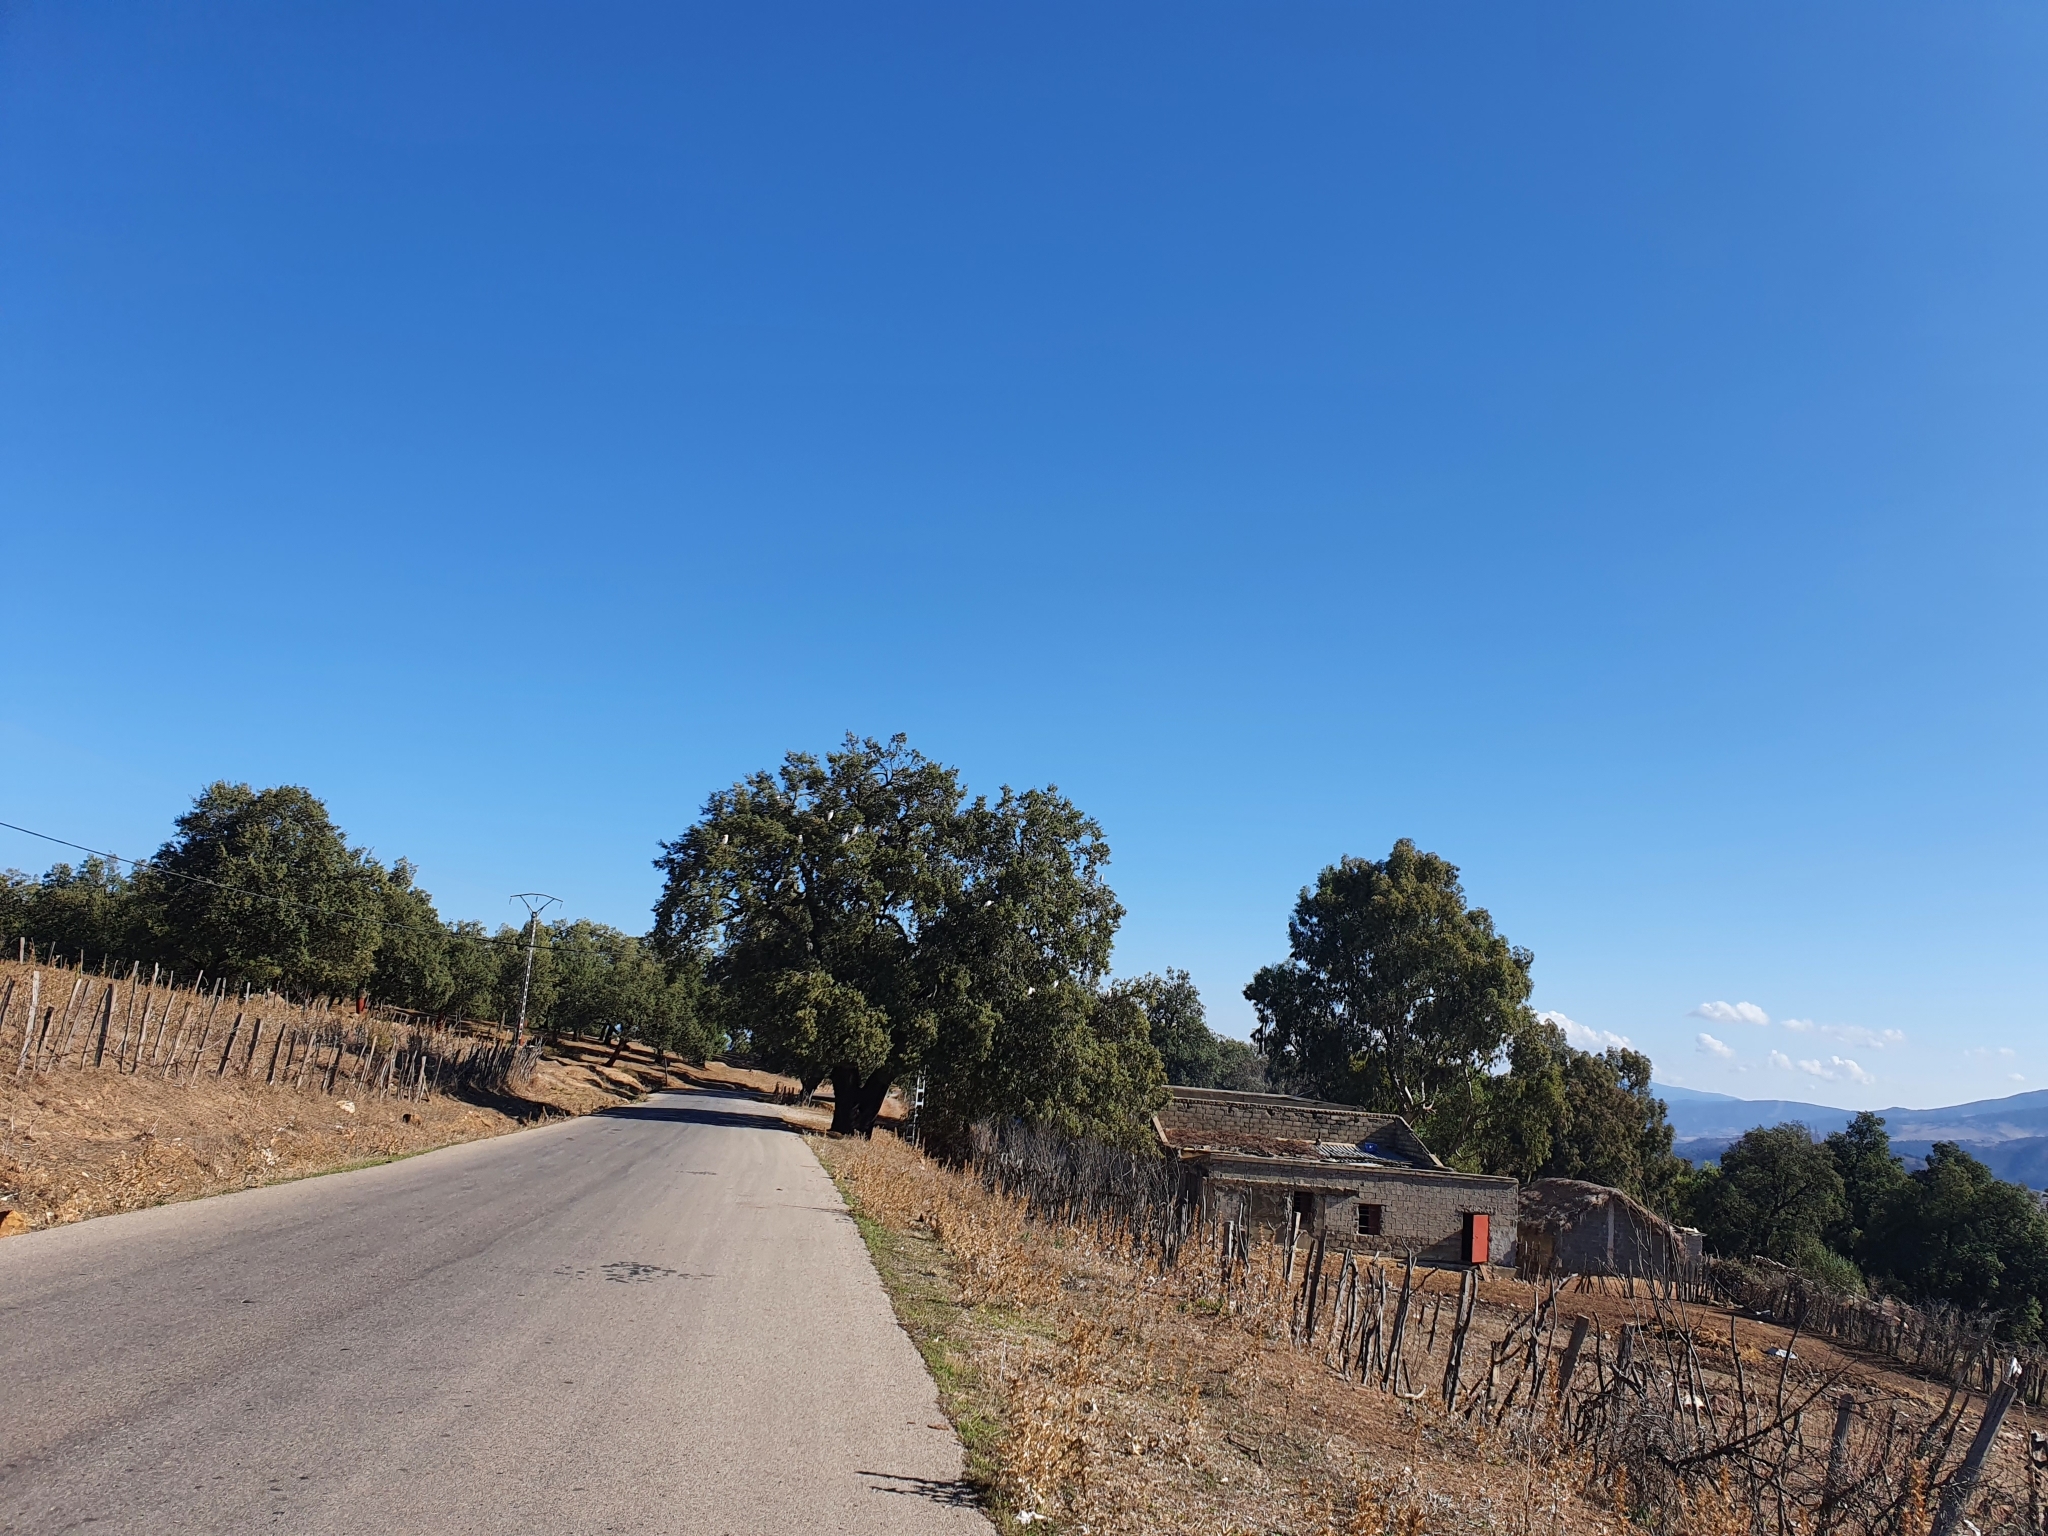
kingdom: Animalia
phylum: Chordata
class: Aves
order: Pelecaniformes
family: Ardeidae
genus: Bubulcus
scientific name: Bubulcus ibis
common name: Cattle egret
